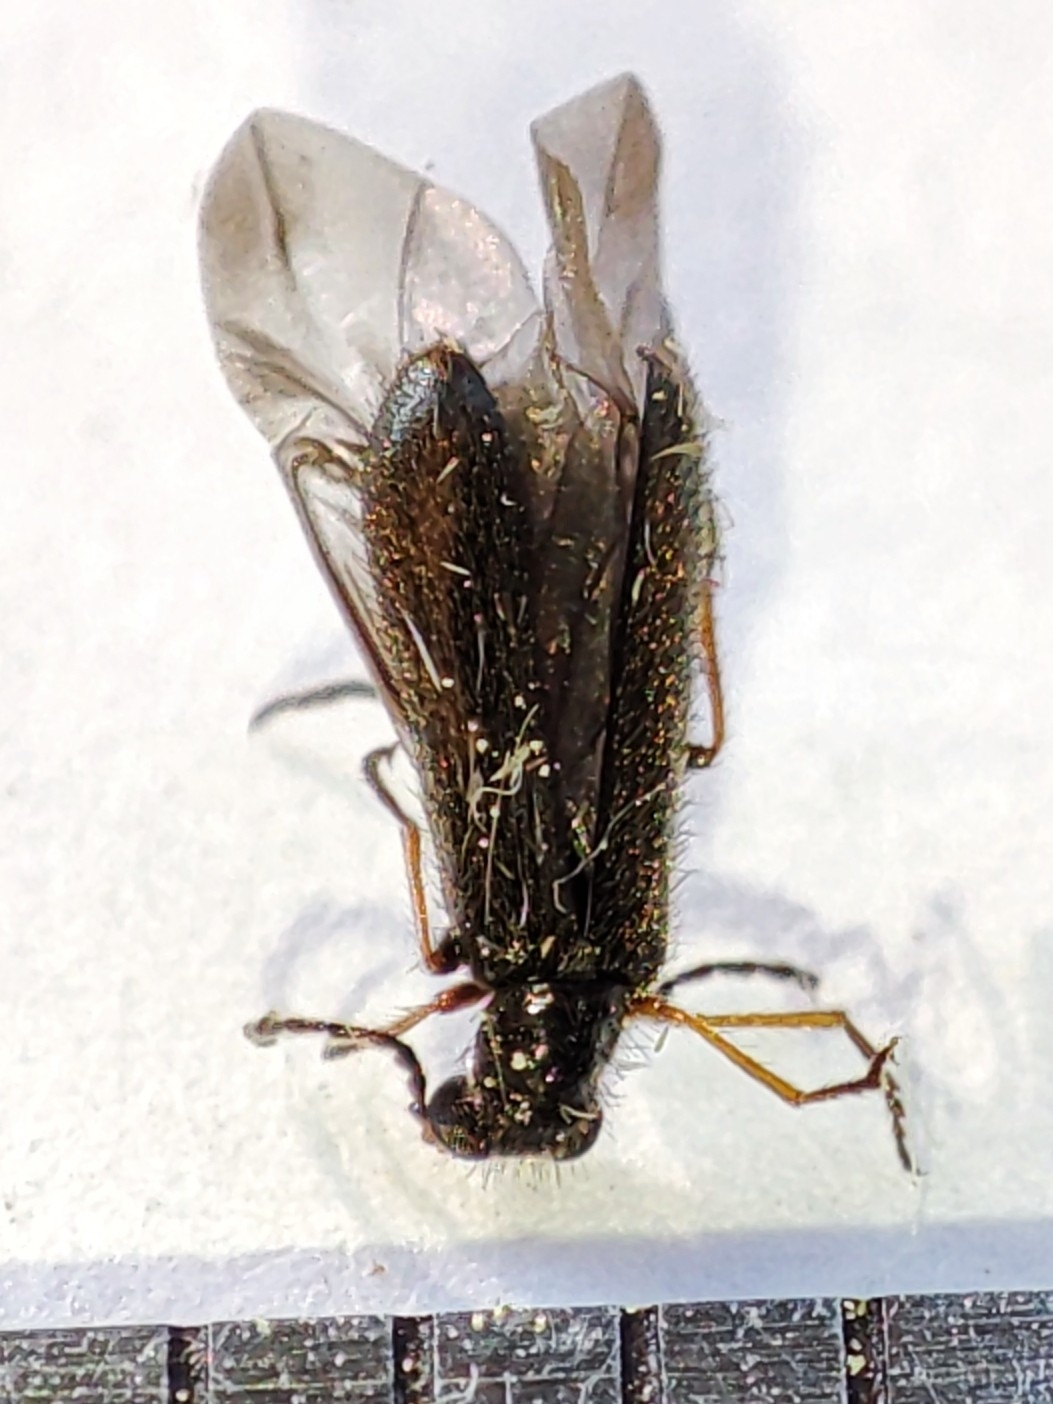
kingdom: Animalia
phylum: Arthropoda
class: Insecta
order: Coleoptera
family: Melyridae
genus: Dasytes
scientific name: Dasytes plumbeus
